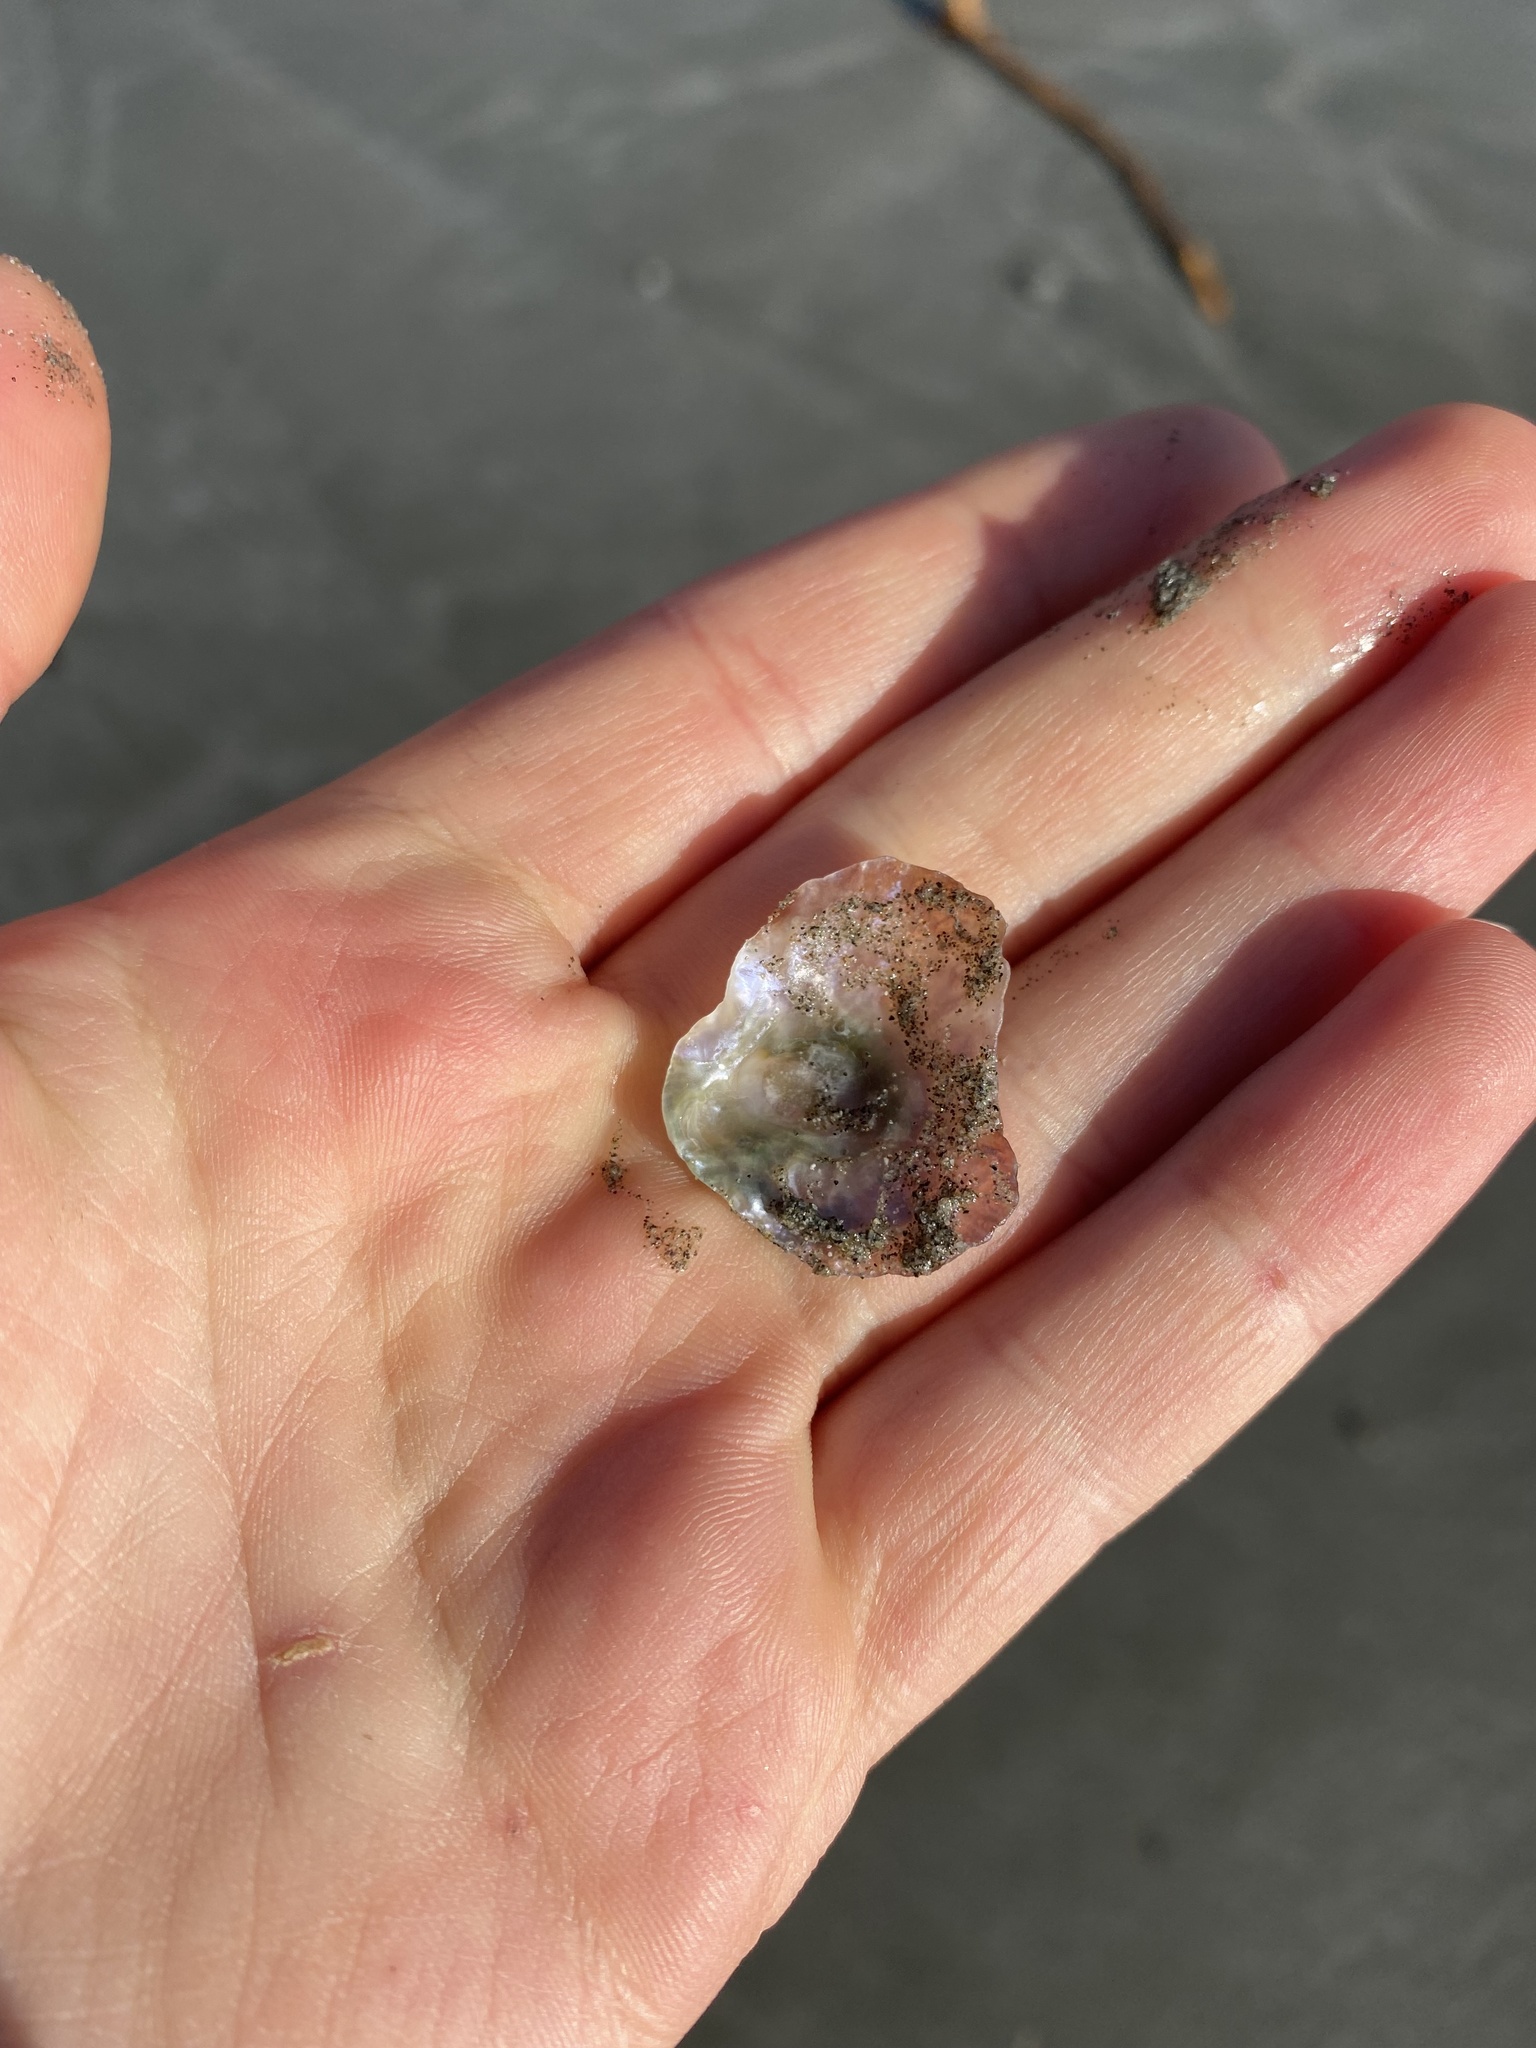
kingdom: Animalia
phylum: Mollusca
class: Bivalvia
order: Pectinida
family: Anomiidae
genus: Pododesmus
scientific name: Pododesmus macrochisma
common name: Alaska jingle
